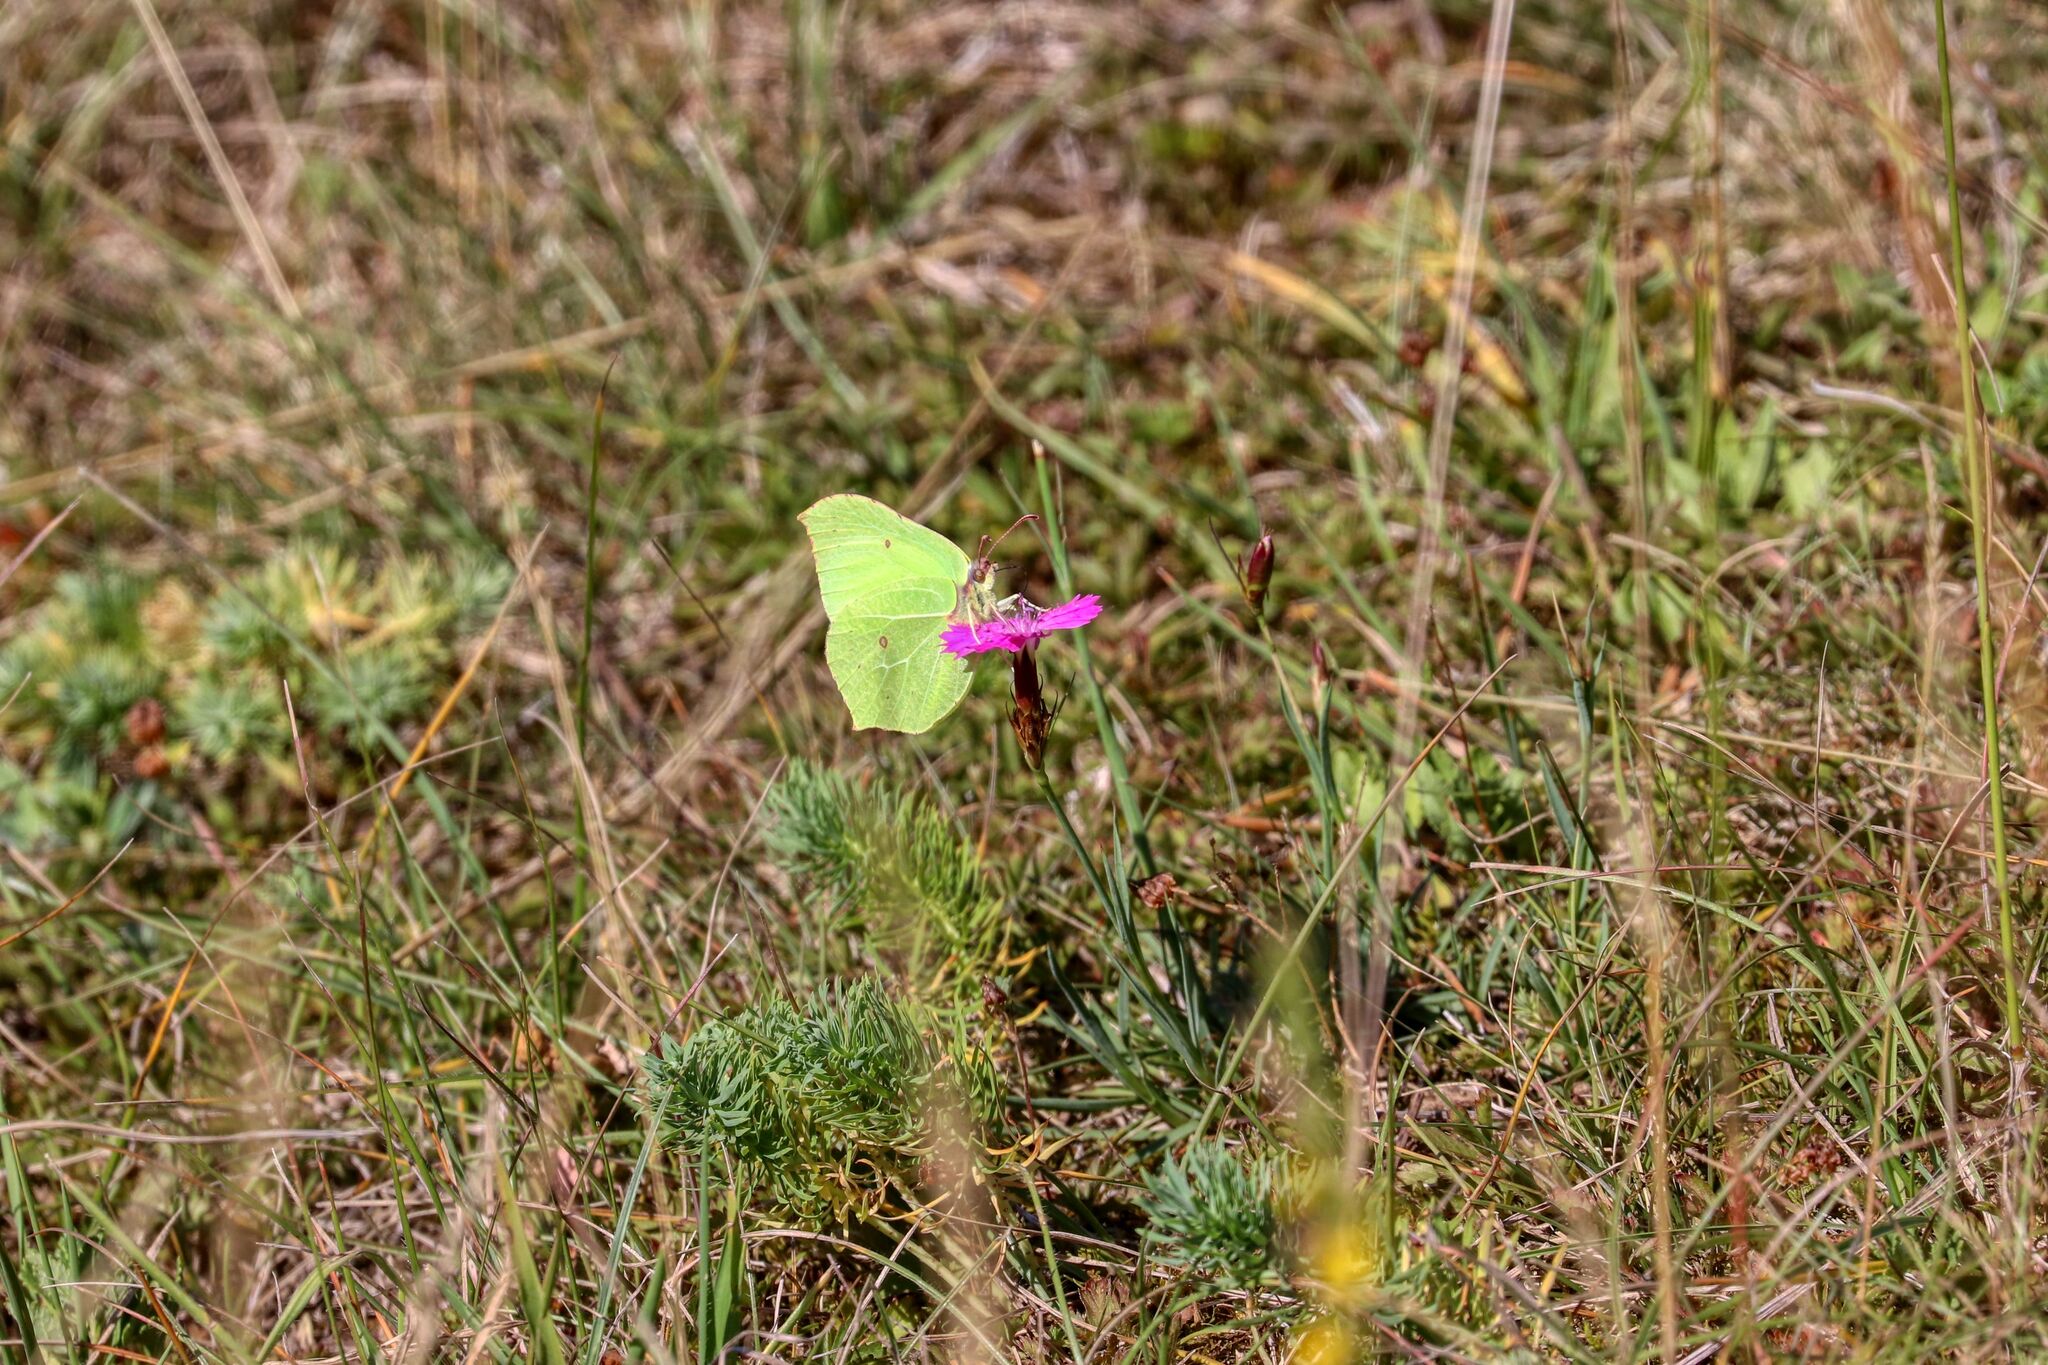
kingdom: Animalia
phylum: Arthropoda
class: Insecta
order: Lepidoptera
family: Pieridae
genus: Gonepteryx
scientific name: Gonepteryx rhamni
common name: Brimstone
